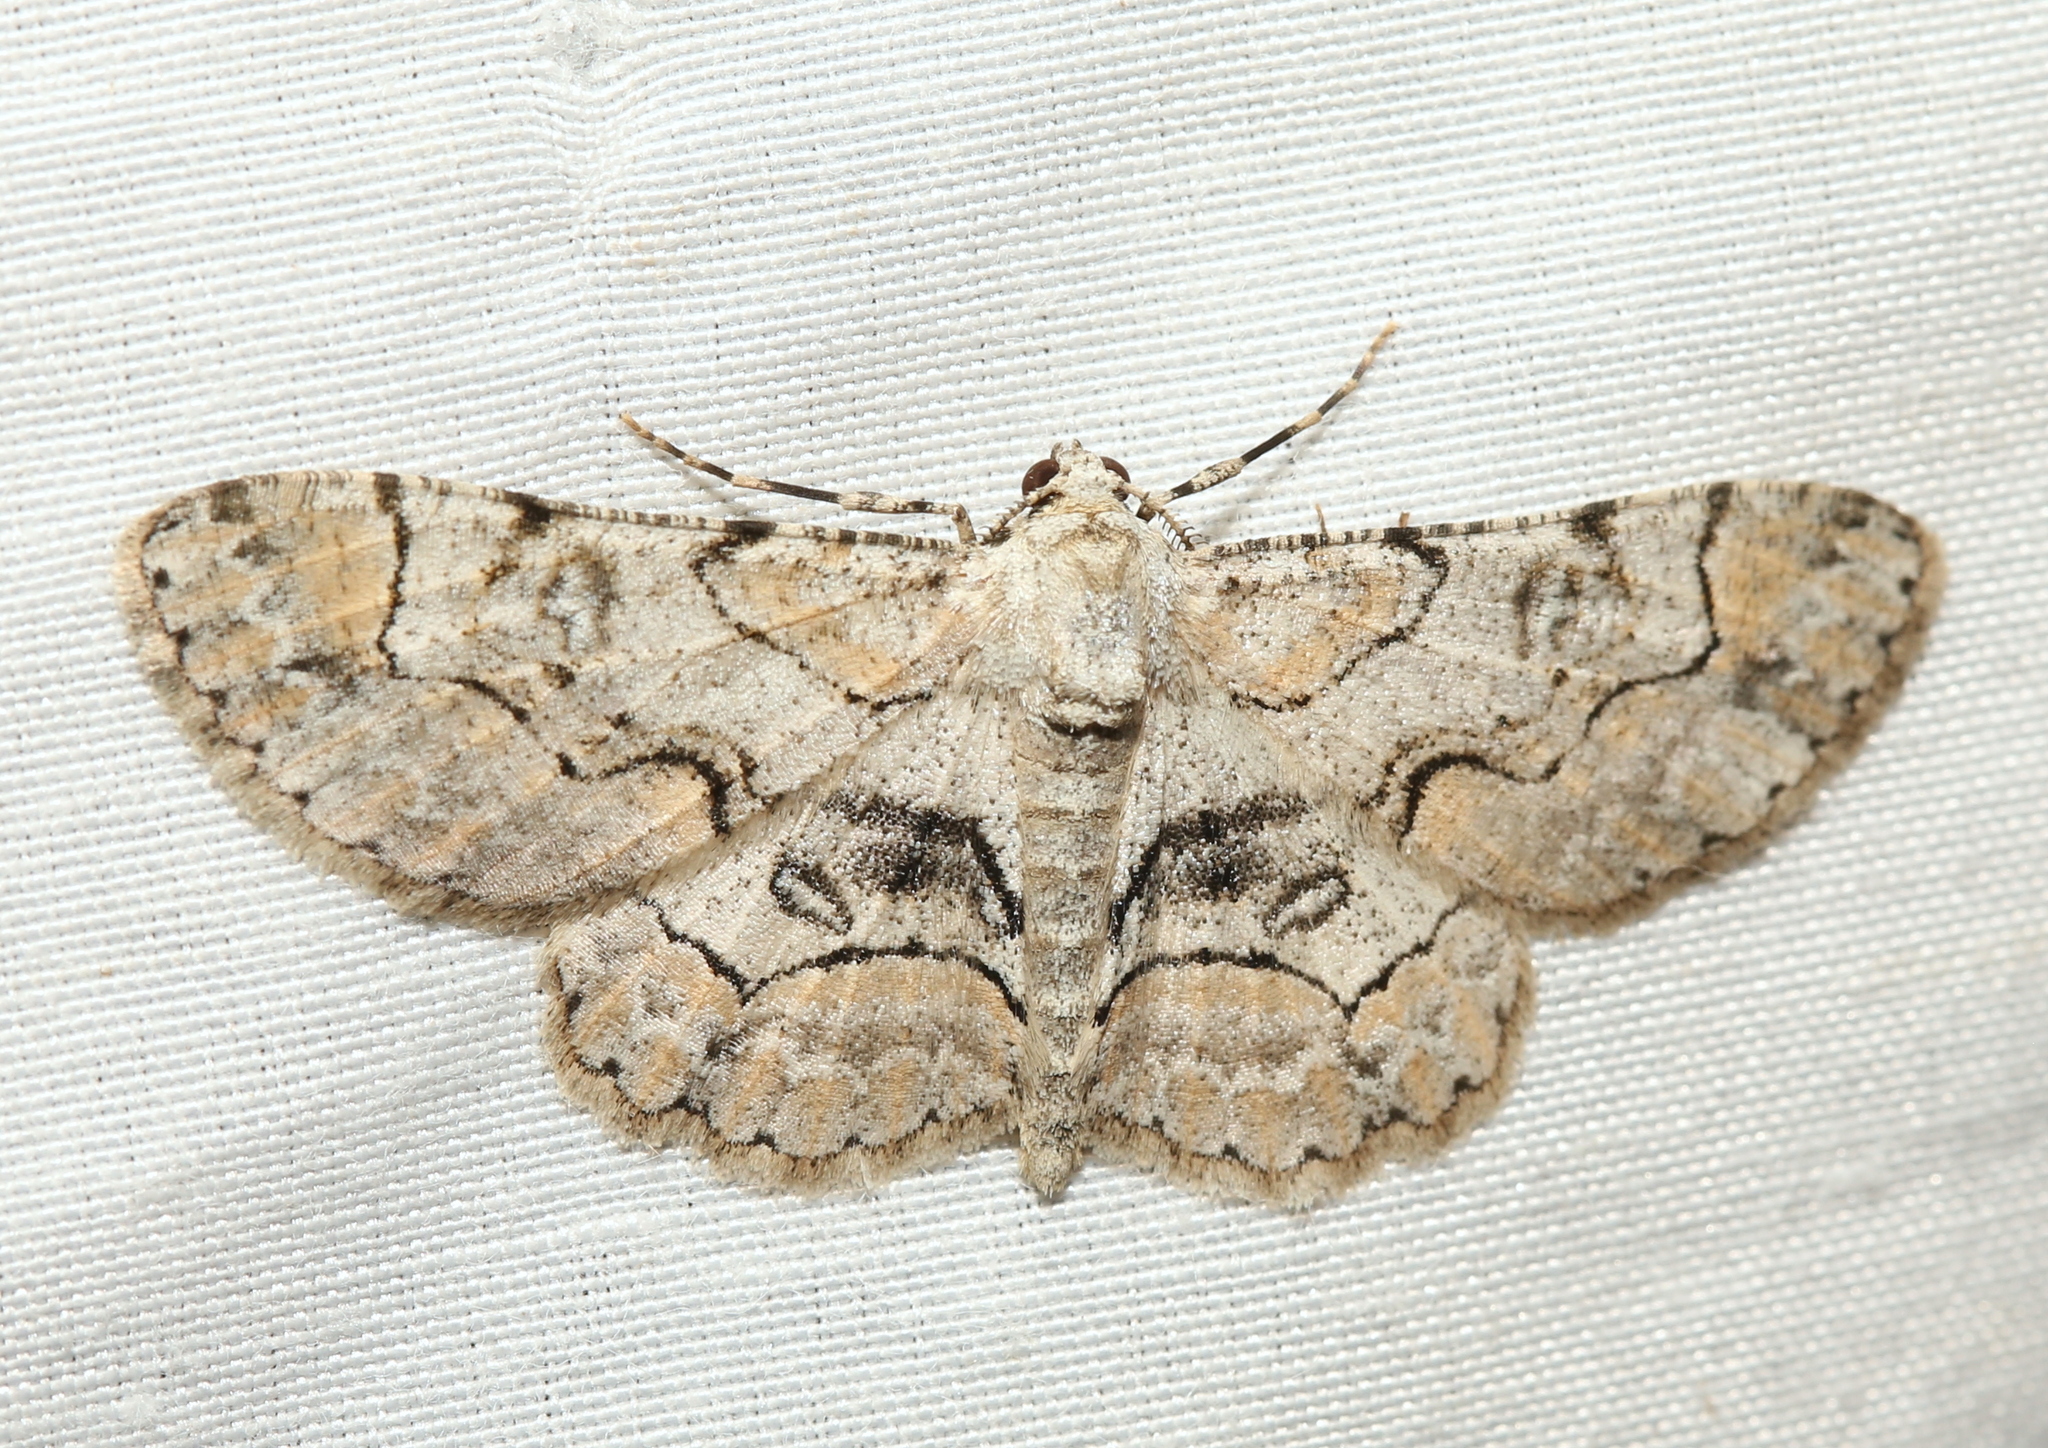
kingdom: Animalia
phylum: Arthropoda
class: Insecta
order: Lepidoptera
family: Geometridae
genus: Iridopsis
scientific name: Iridopsis larvaria
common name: Bent-line gray
